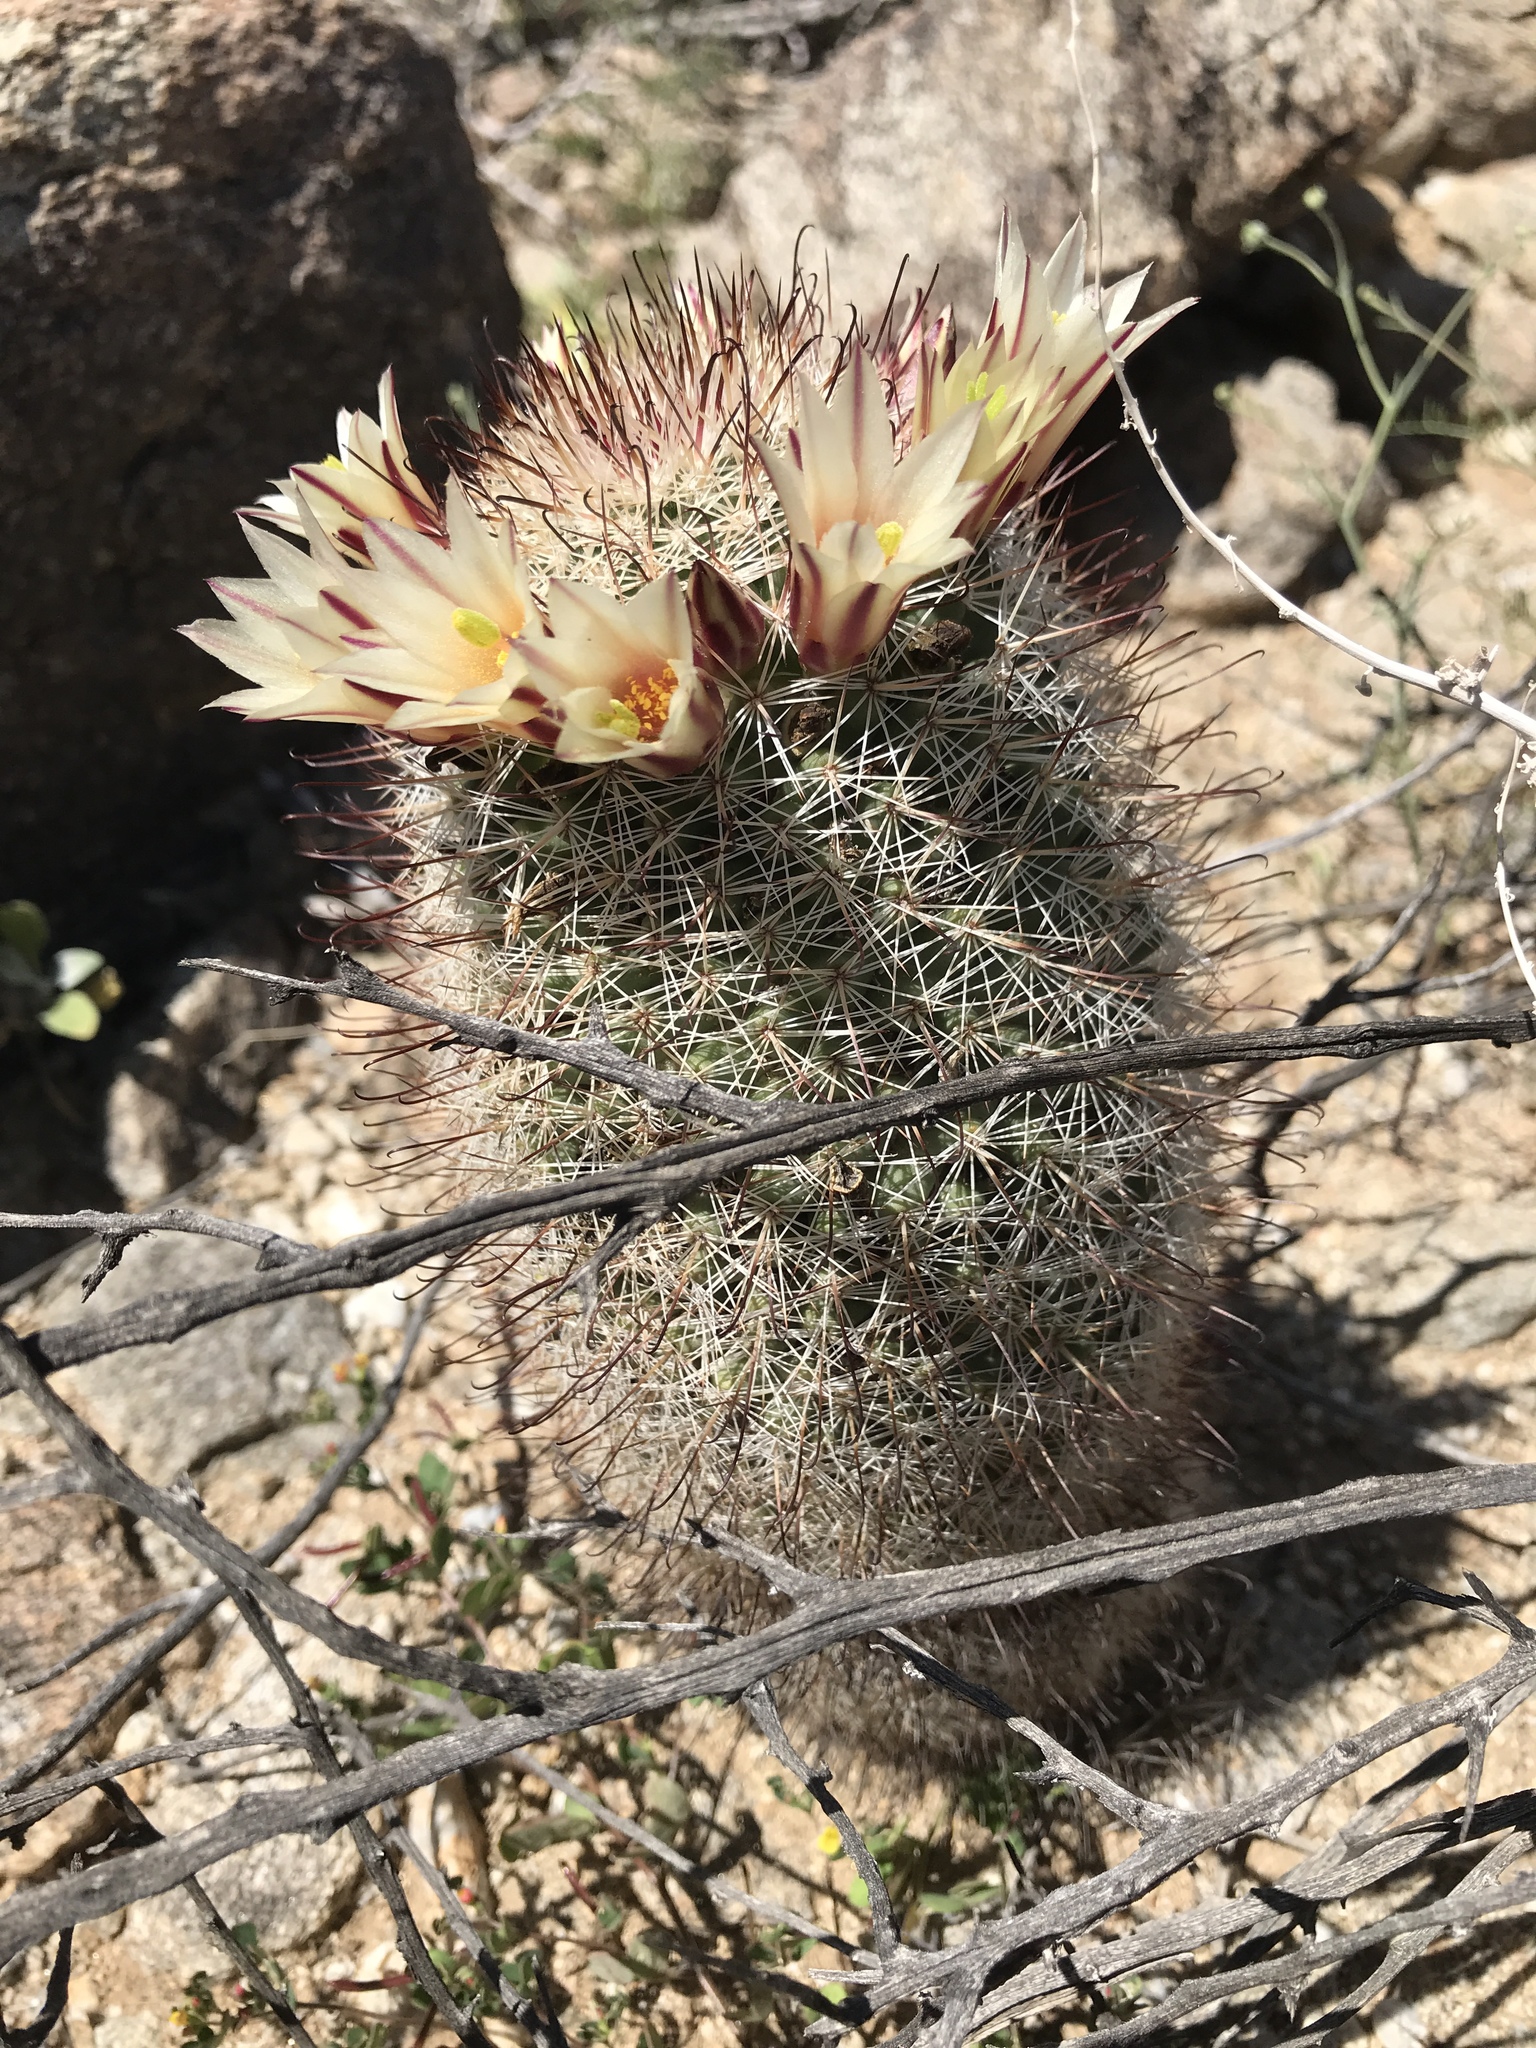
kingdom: Plantae
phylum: Tracheophyta
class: Magnoliopsida
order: Caryophyllales
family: Cactaceae
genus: Cochemiea
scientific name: Cochemiea dioica
